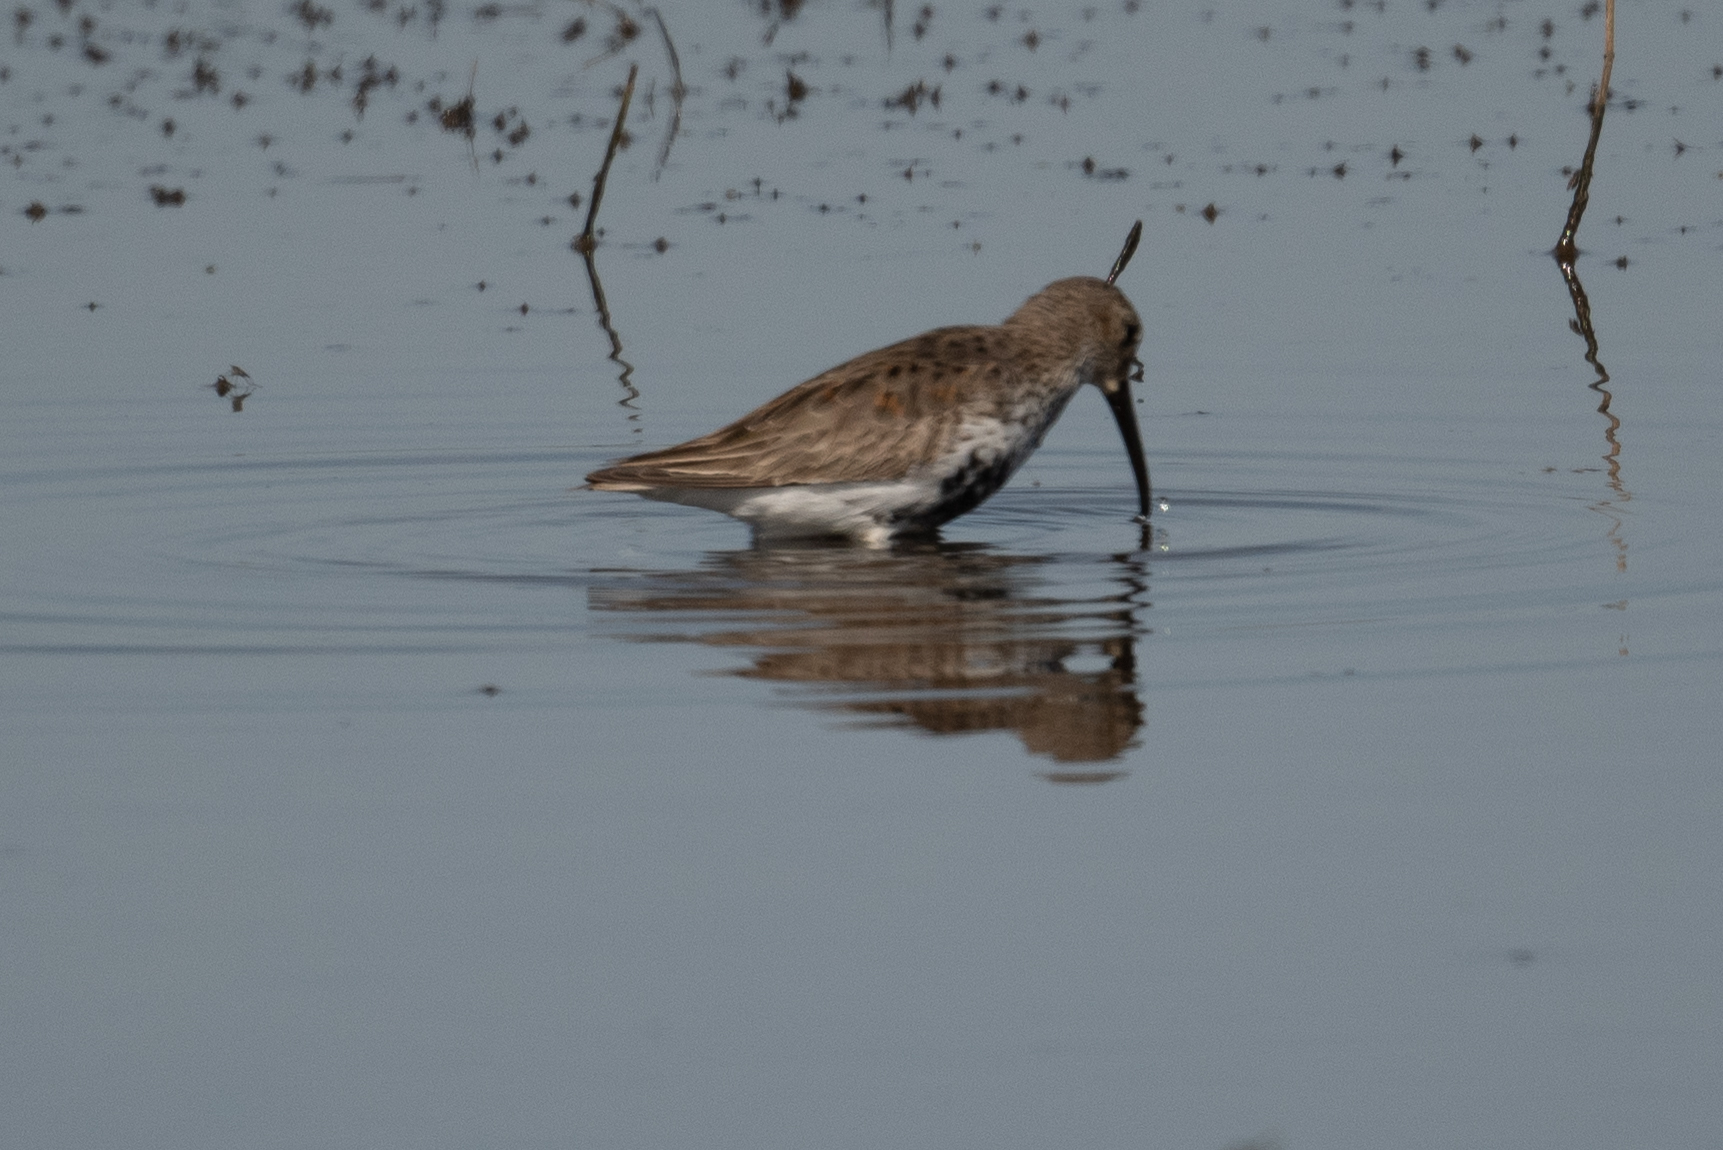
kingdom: Animalia
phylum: Chordata
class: Aves
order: Charadriiformes
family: Scolopacidae
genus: Calidris
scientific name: Calidris alpina
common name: Dunlin
